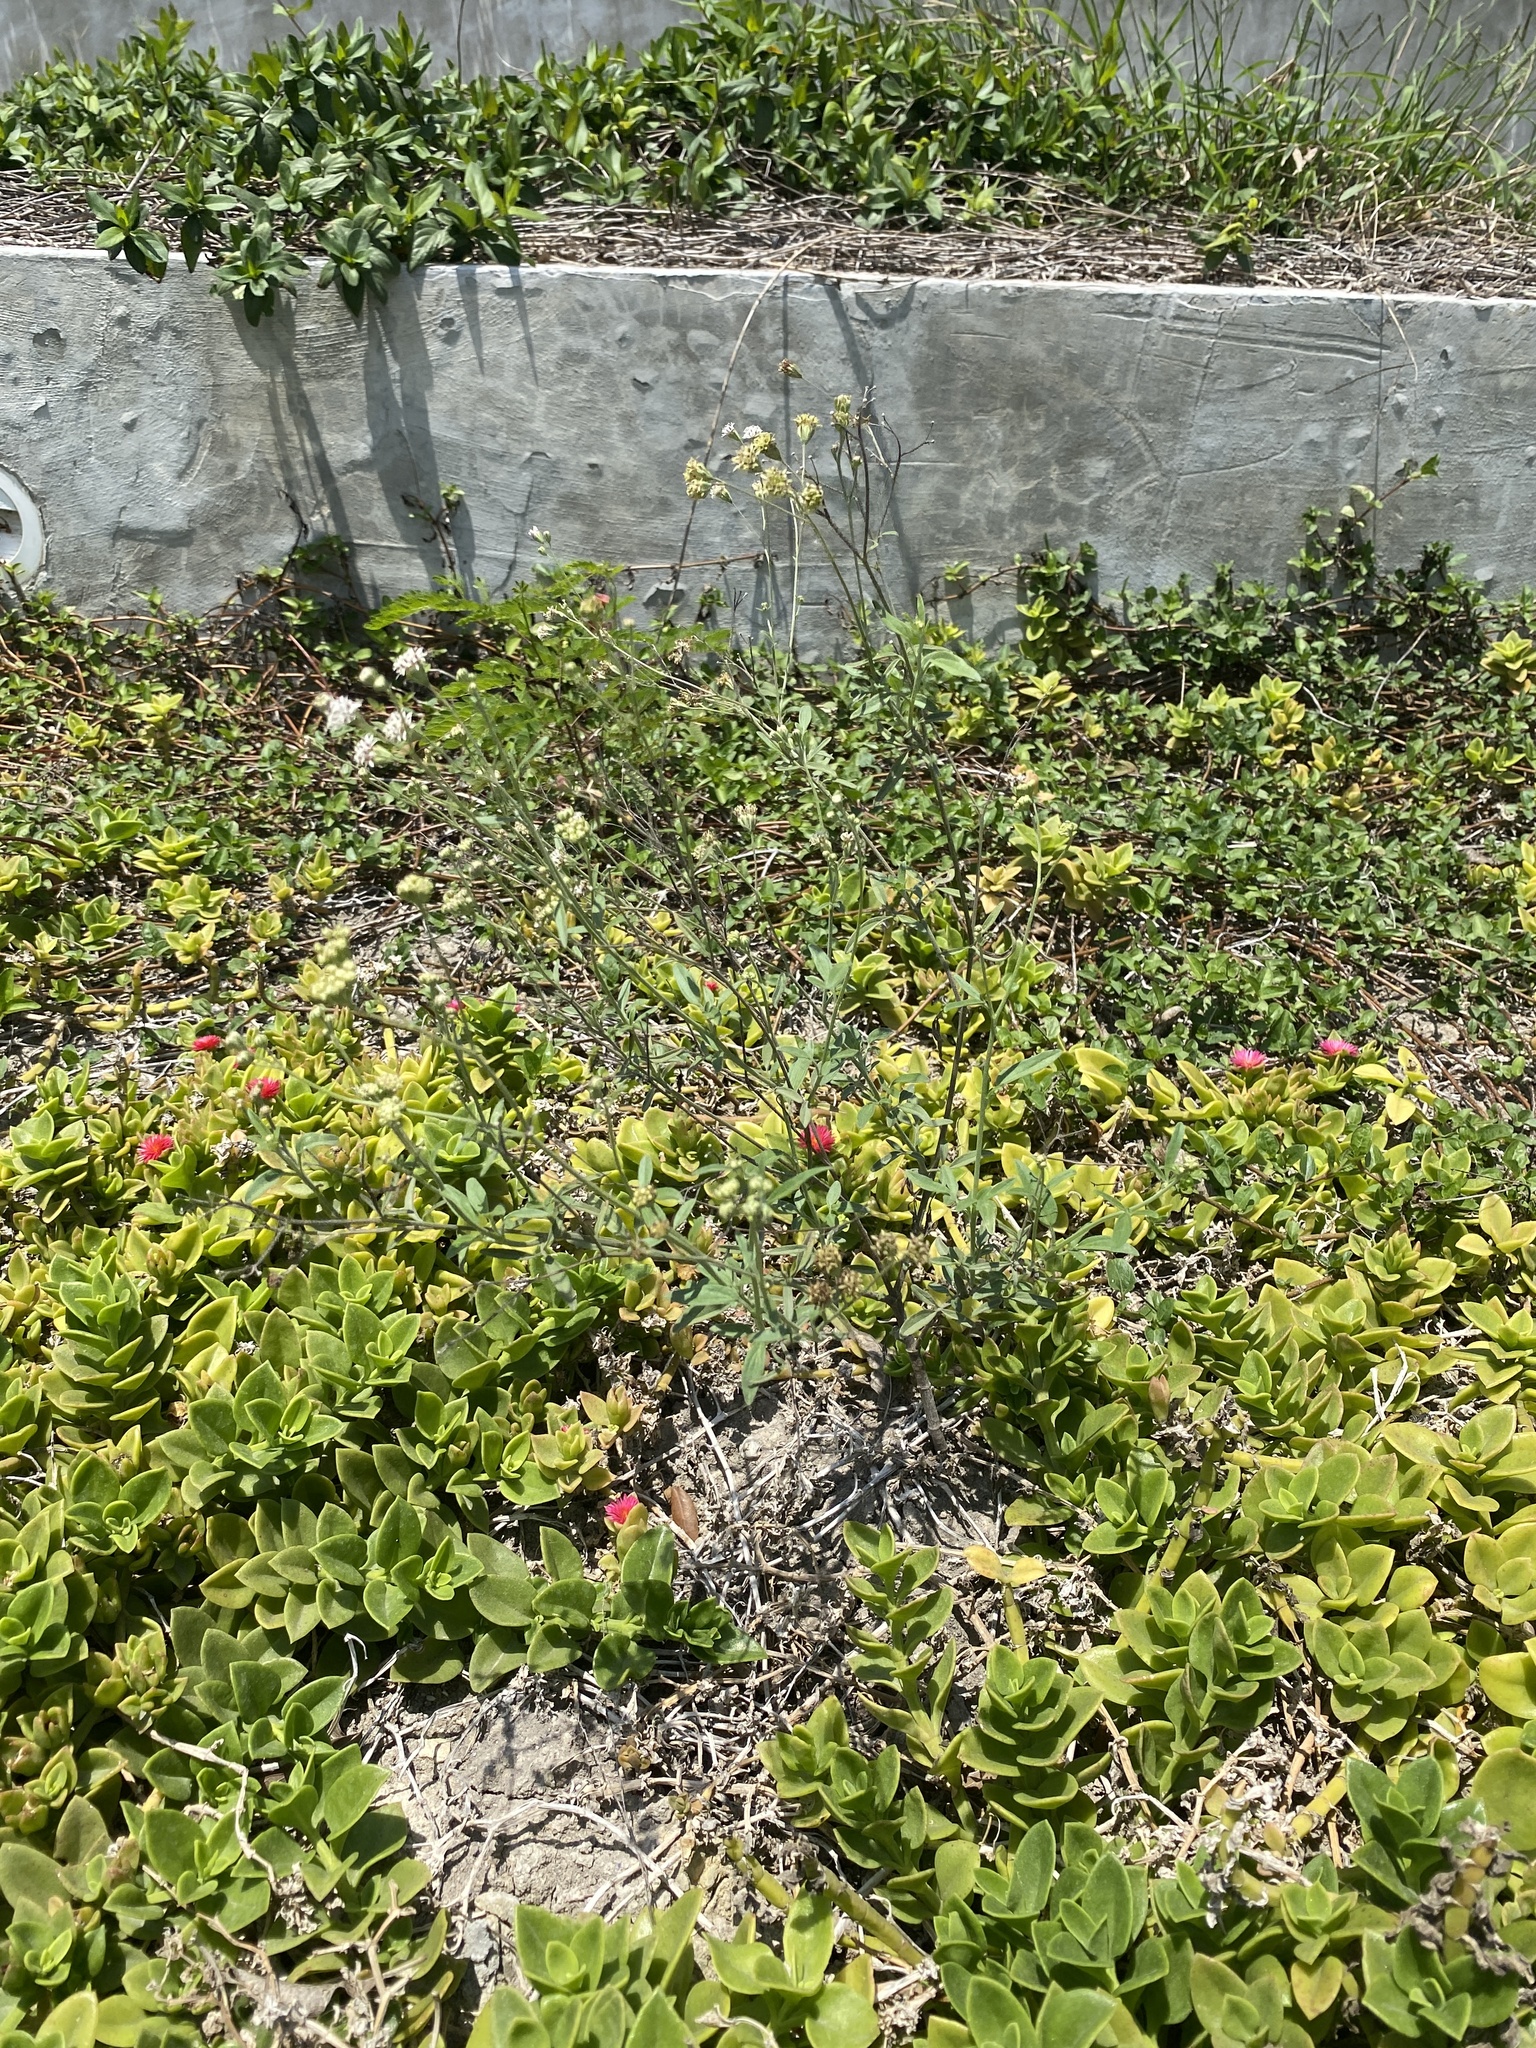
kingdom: Plantae
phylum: Tracheophyta
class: Magnoliopsida
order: Asterales
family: Asteraceae
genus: Florestina
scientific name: Florestina tripteris
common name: Sticky florestina
